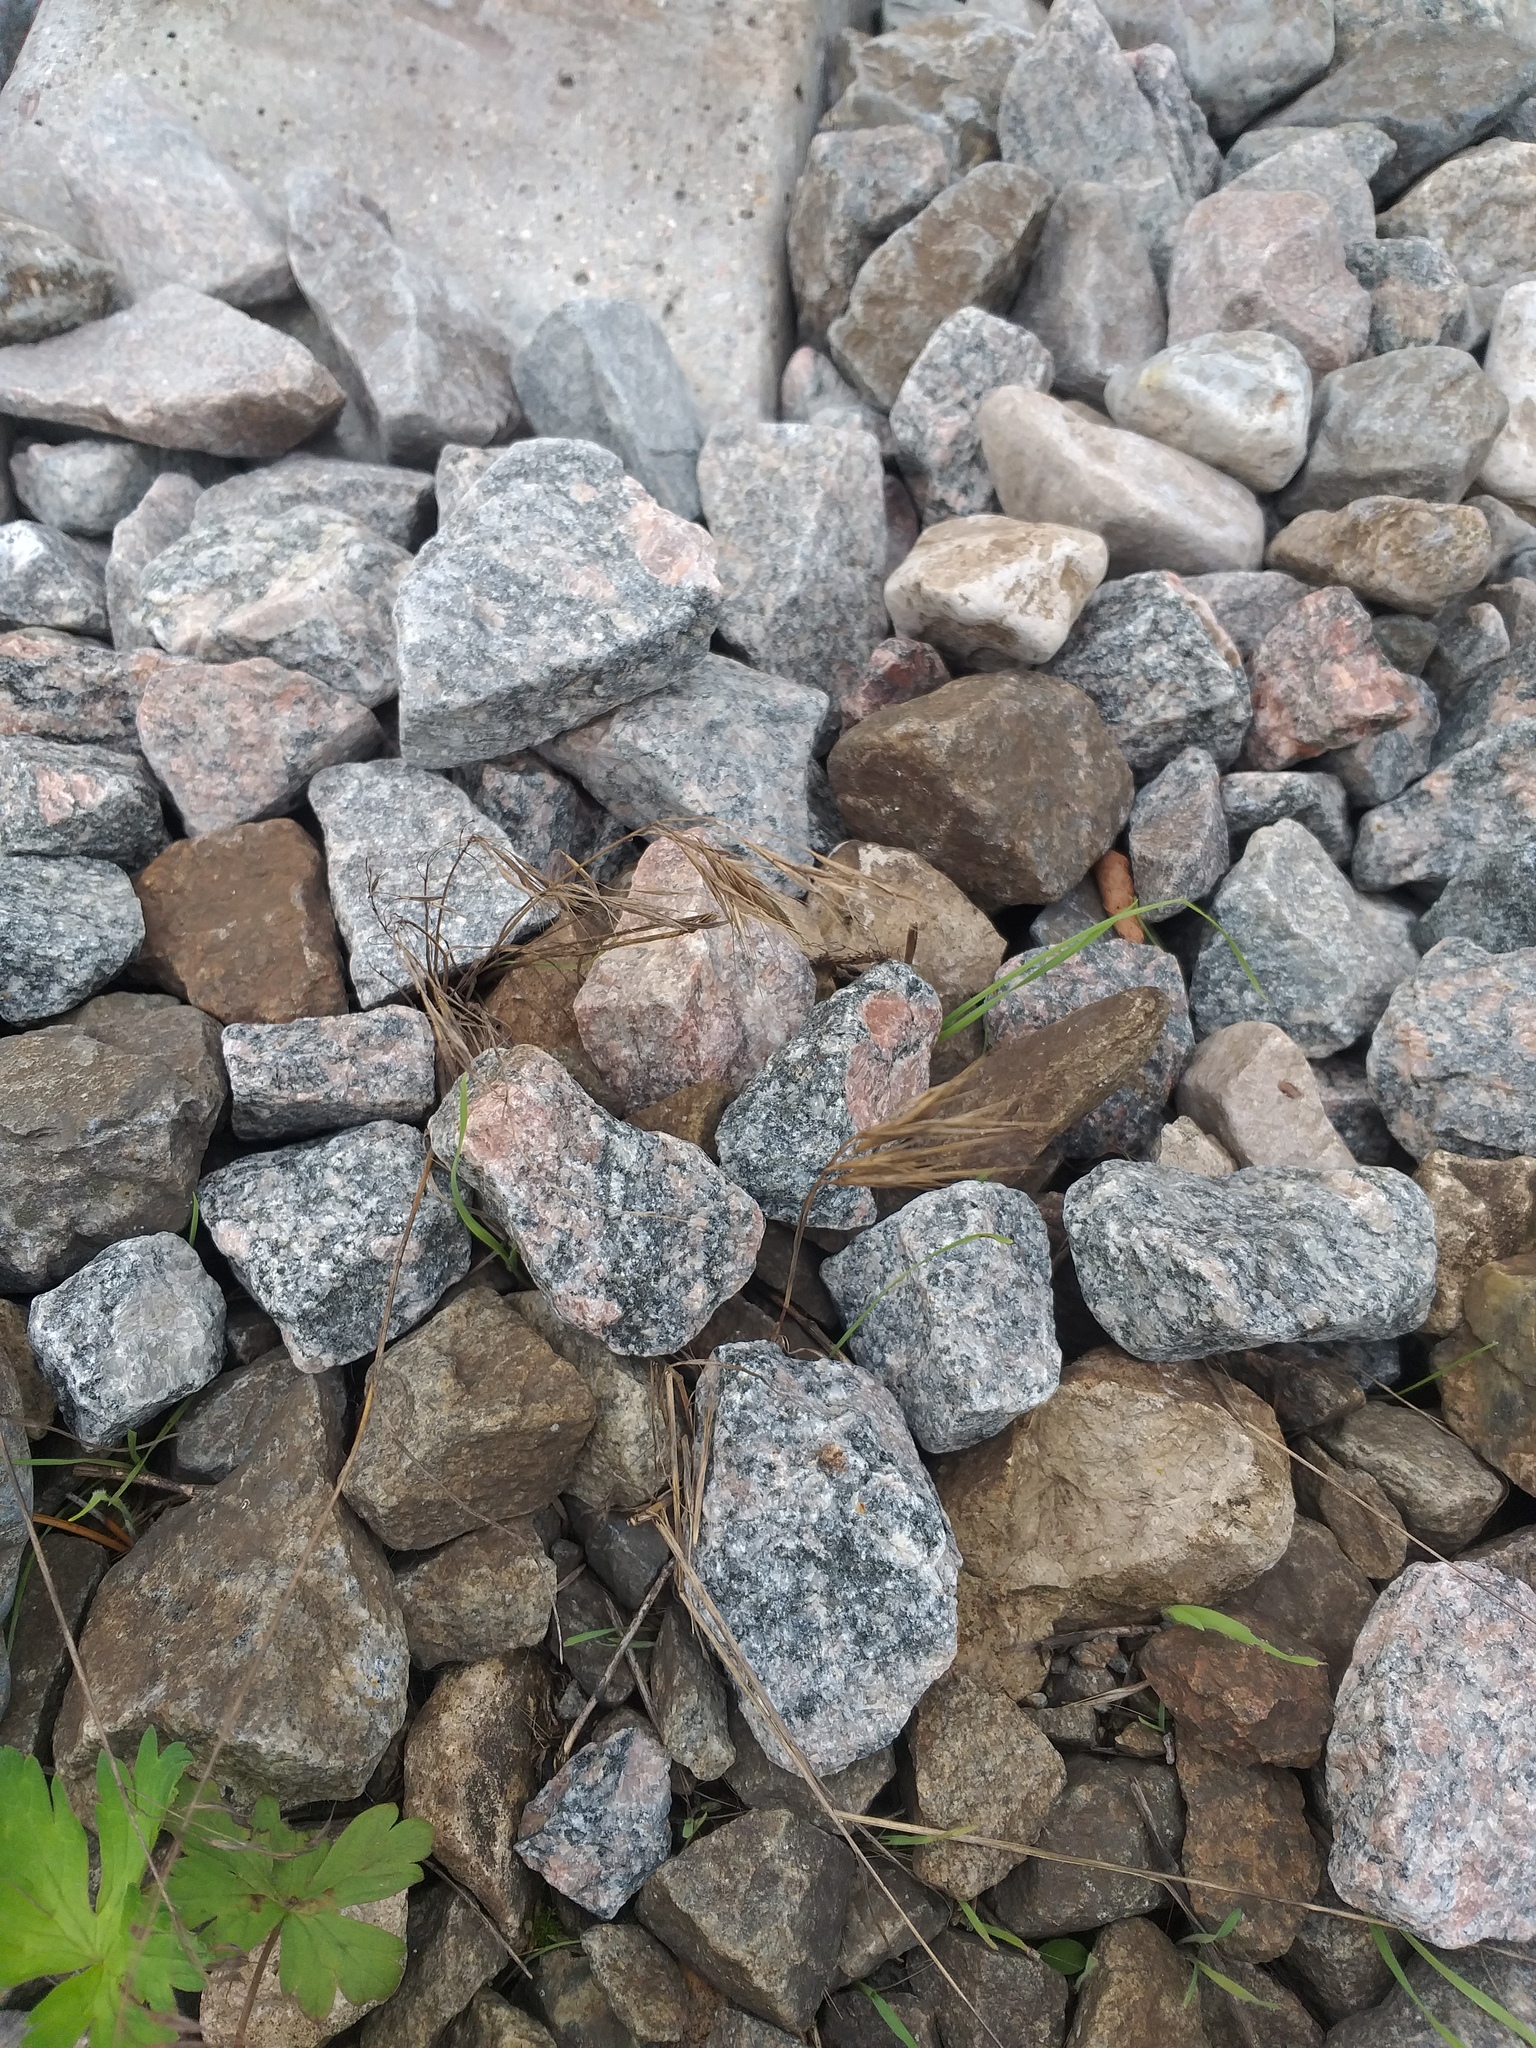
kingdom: Plantae
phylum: Tracheophyta
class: Liliopsida
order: Poales
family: Poaceae
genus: Bromus
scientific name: Bromus tectorum
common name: Cheatgrass
